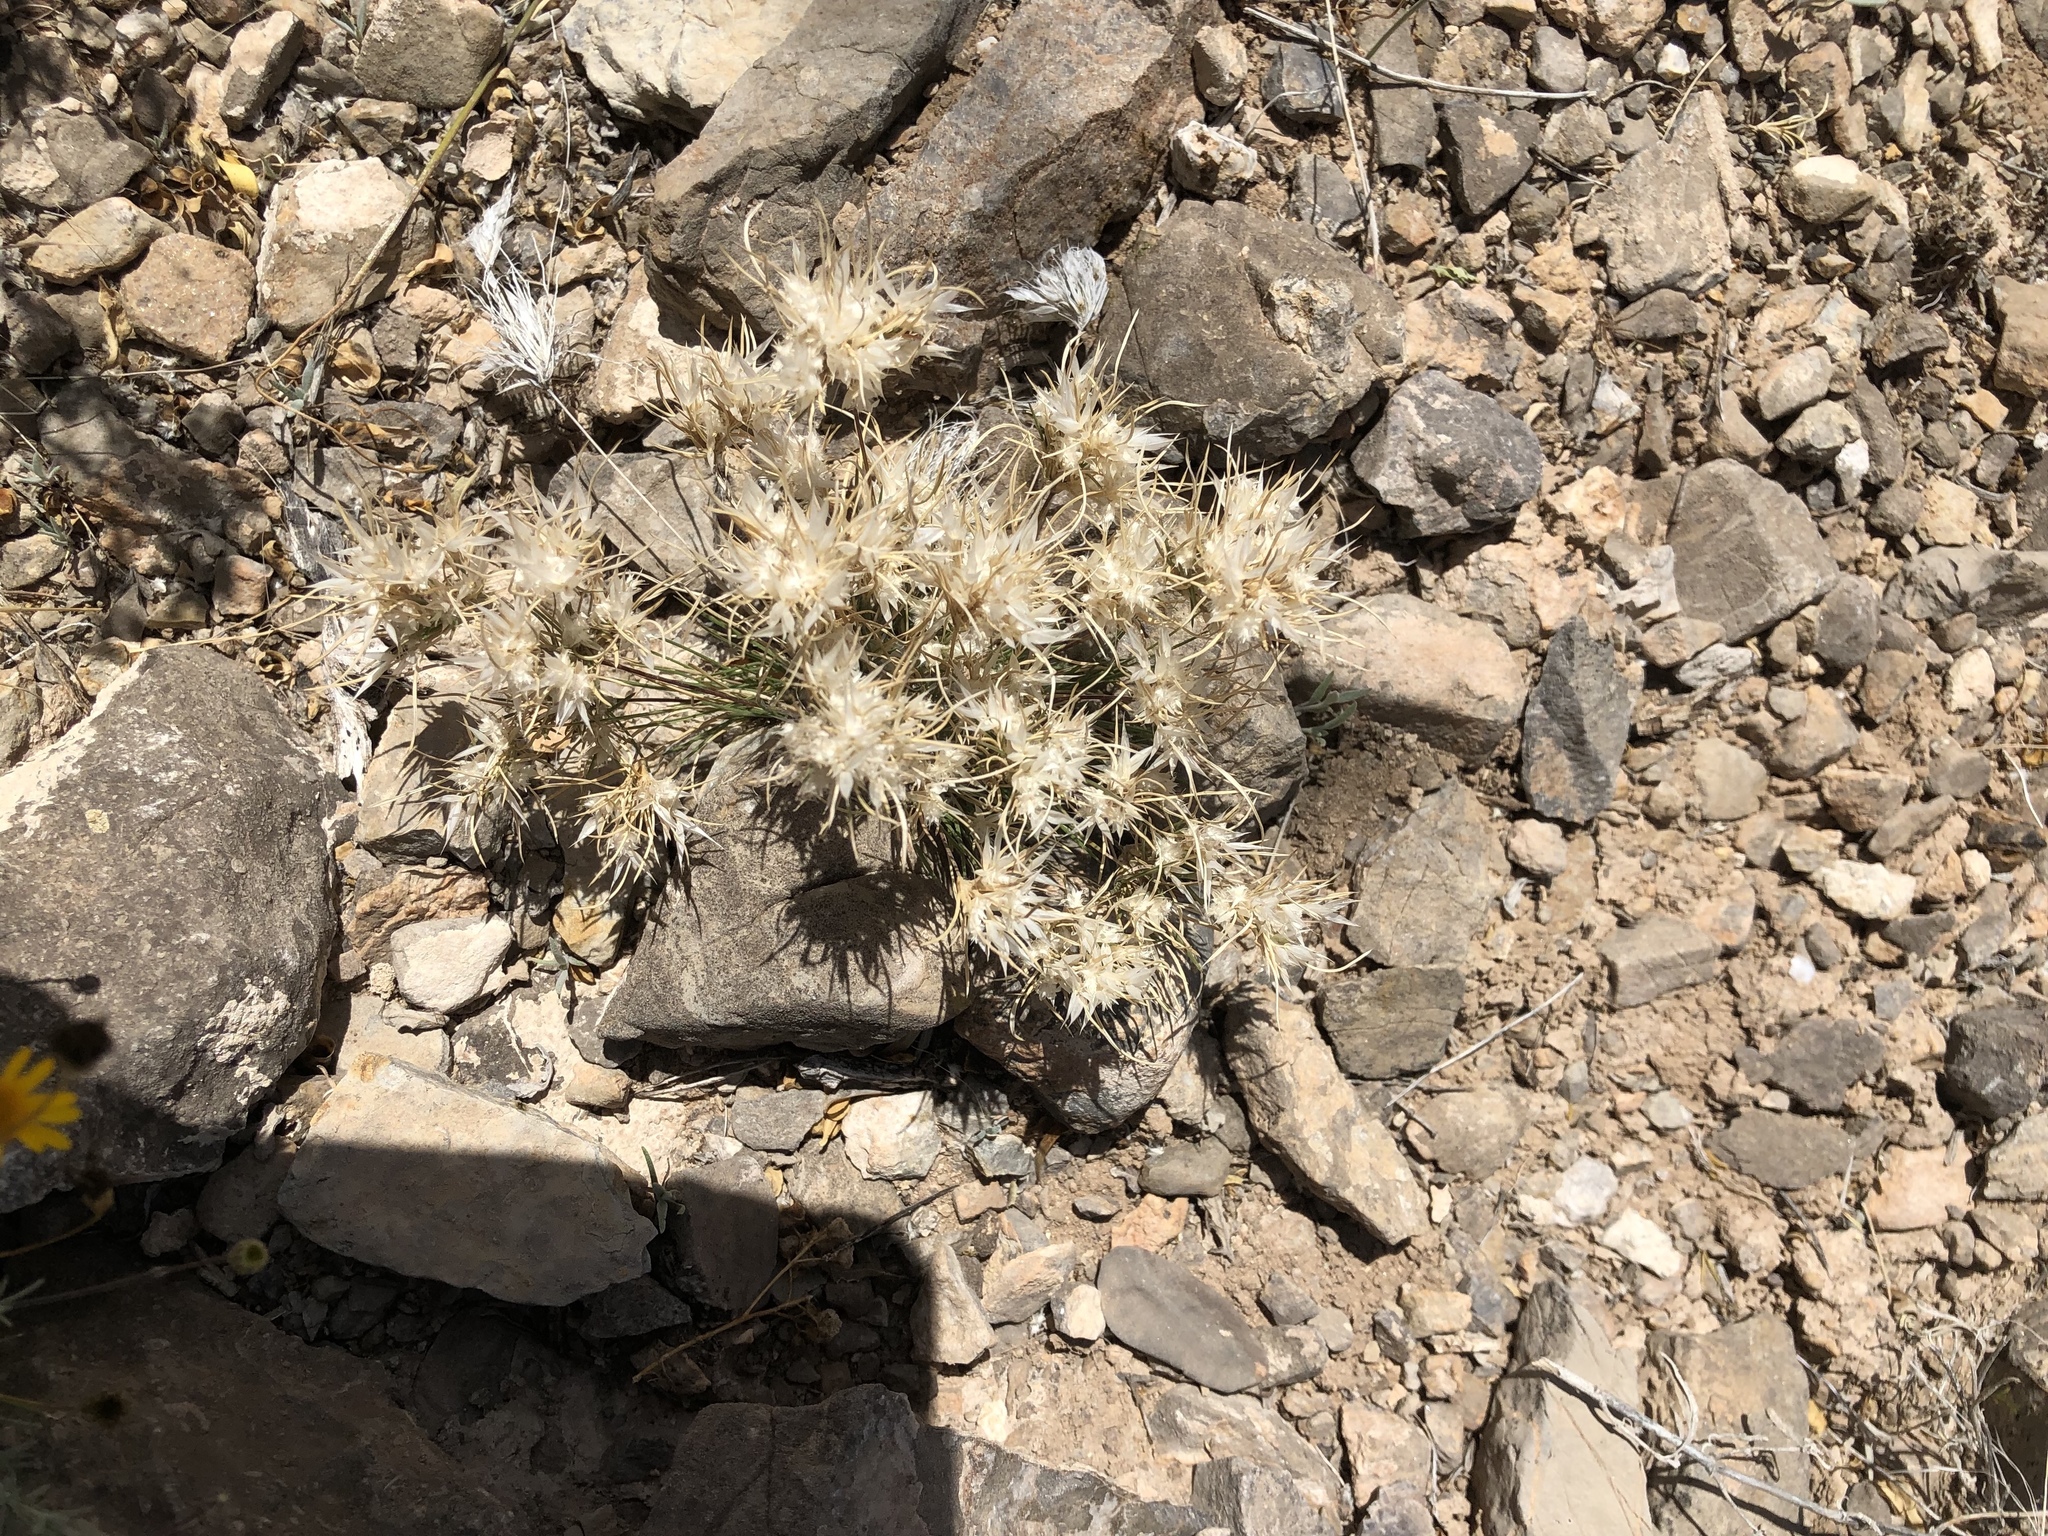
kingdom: Plantae
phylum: Tracheophyta
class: Liliopsida
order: Poales
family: Poaceae
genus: Dasyochloa
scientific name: Dasyochloa pulchella
